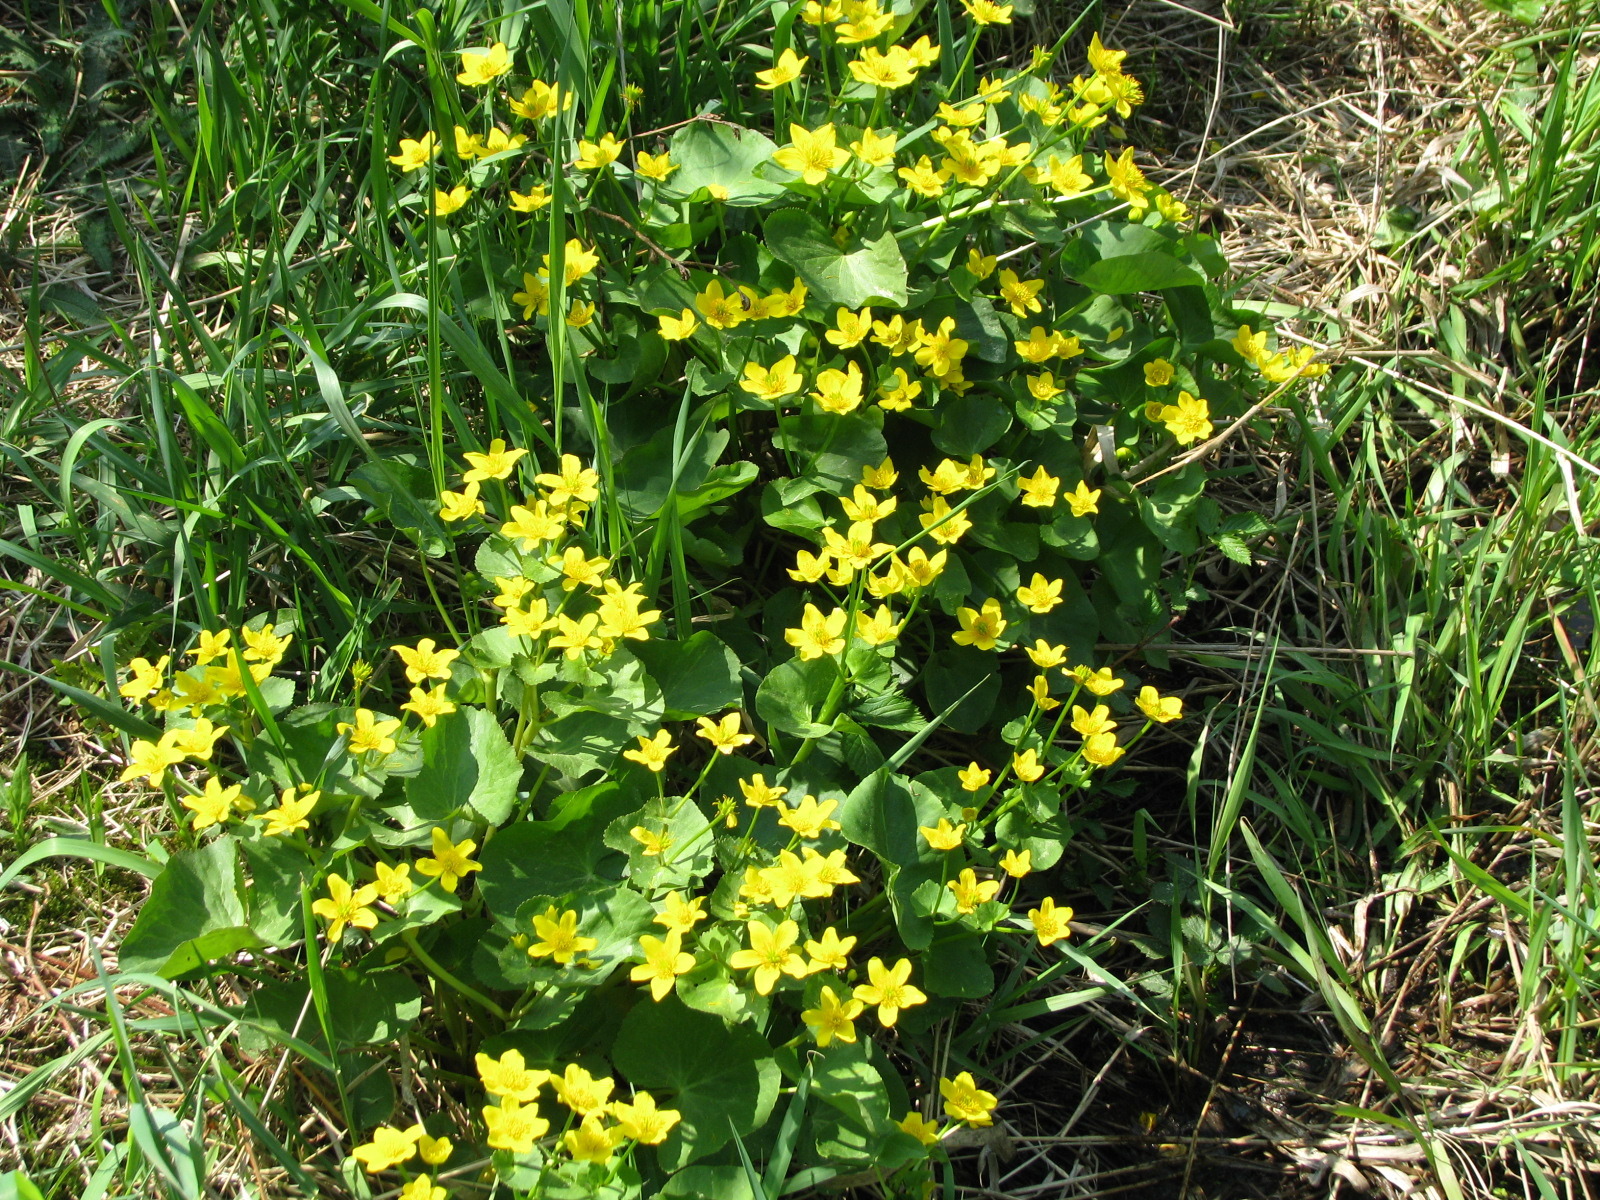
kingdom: Plantae
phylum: Tracheophyta
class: Magnoliopsida
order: Ranunculales
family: Ranunculaceae
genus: Caltha
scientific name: Caltha palustris
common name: Marsh marigold
